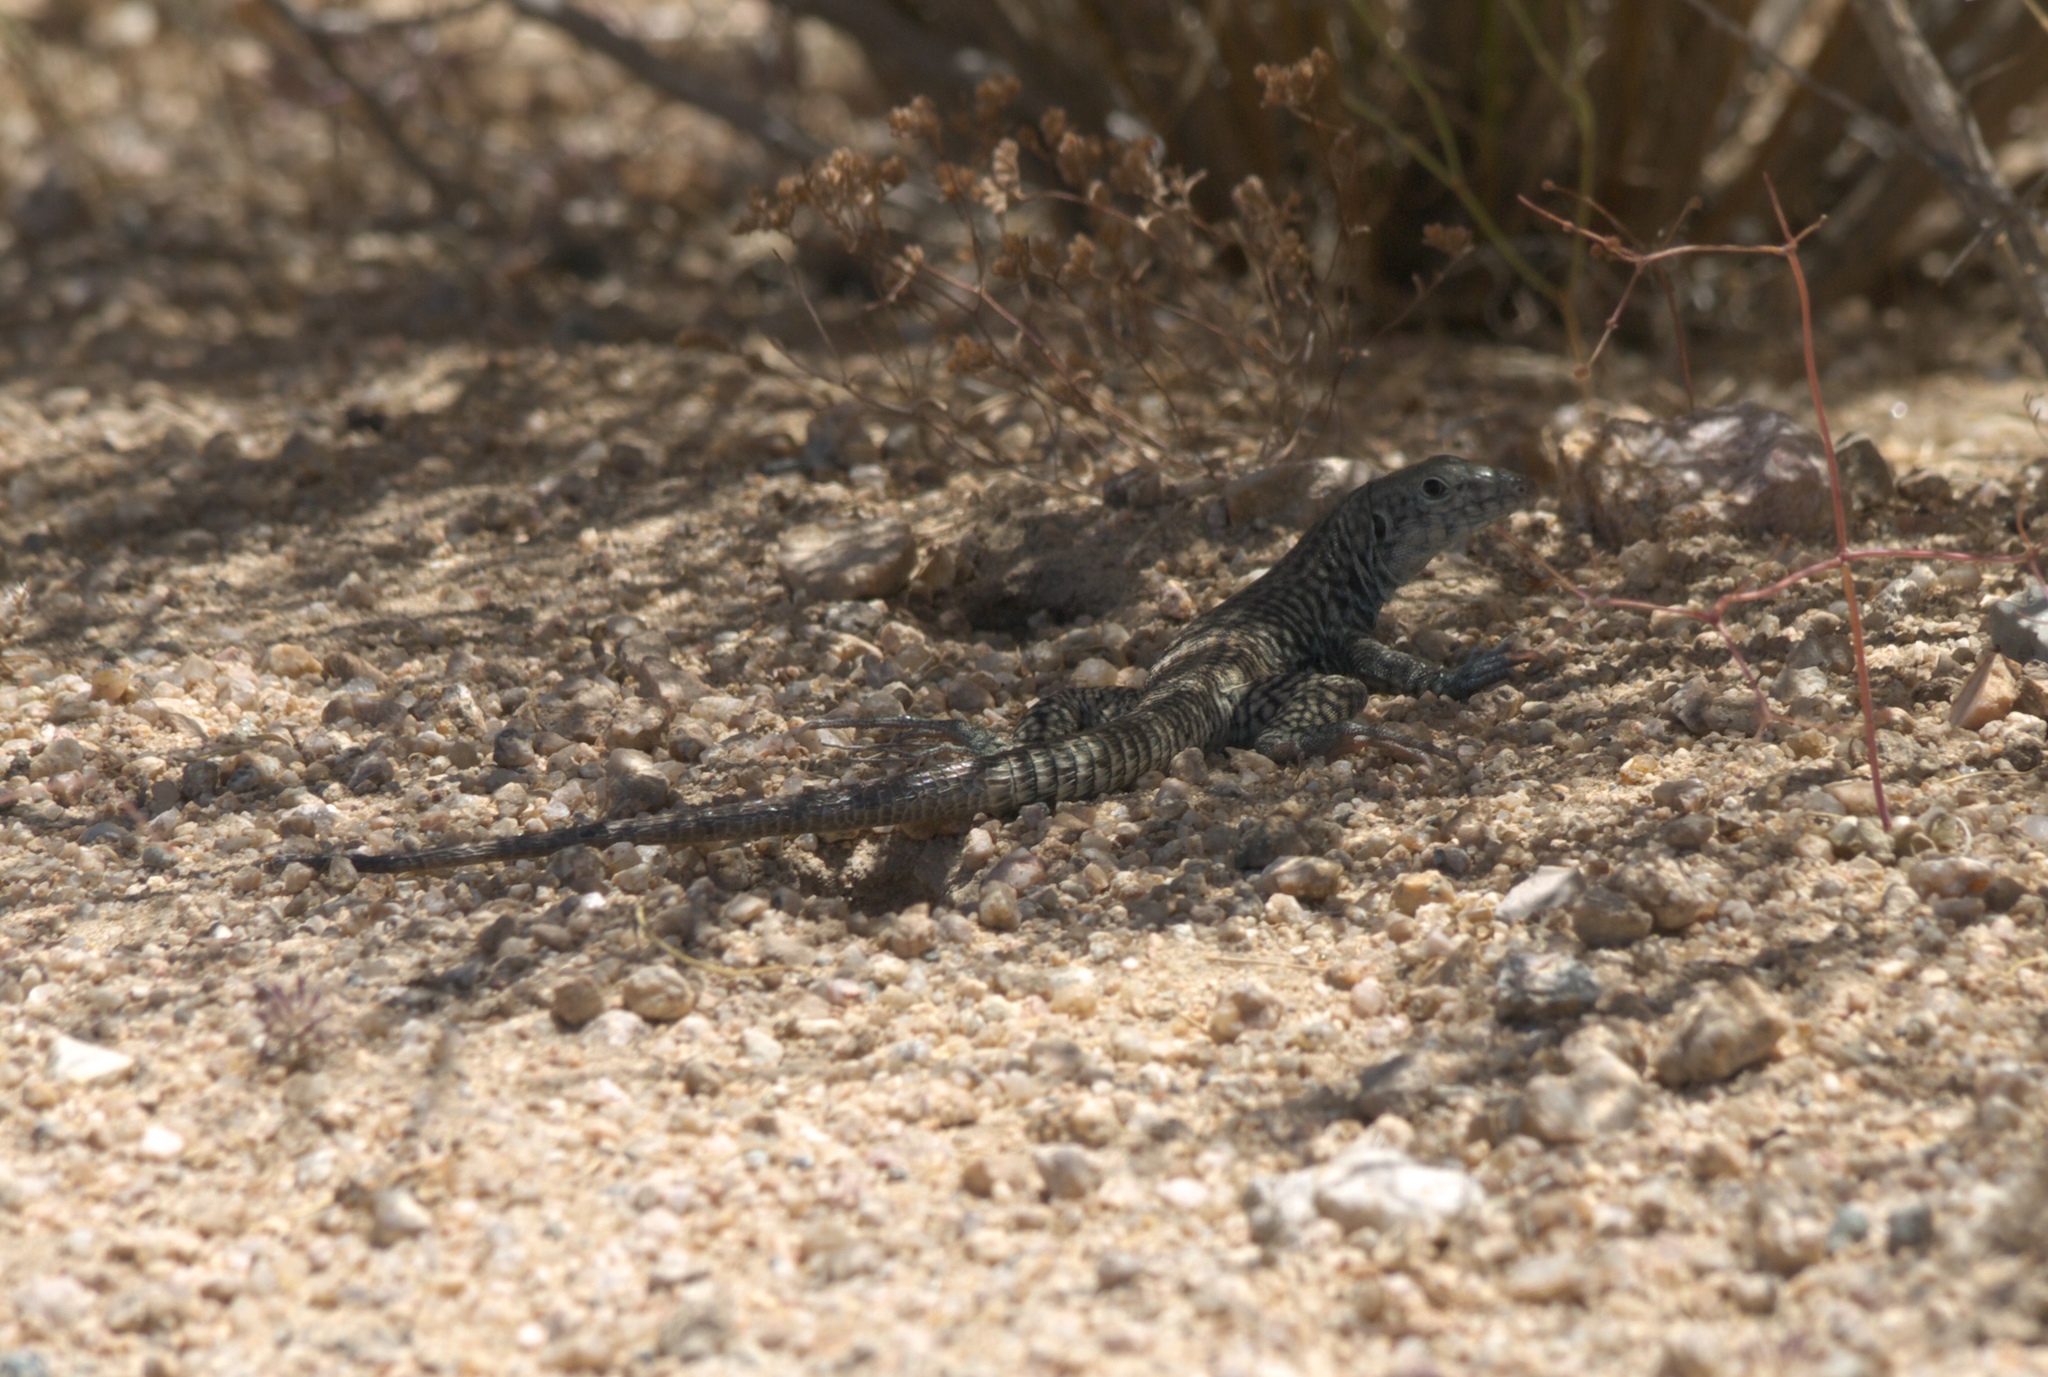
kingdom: Animalia
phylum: Chordata
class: Squamata
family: Teiidae
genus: Aspidoscelis
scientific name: Aspidoscelis tigris
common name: Tiger whiptail
